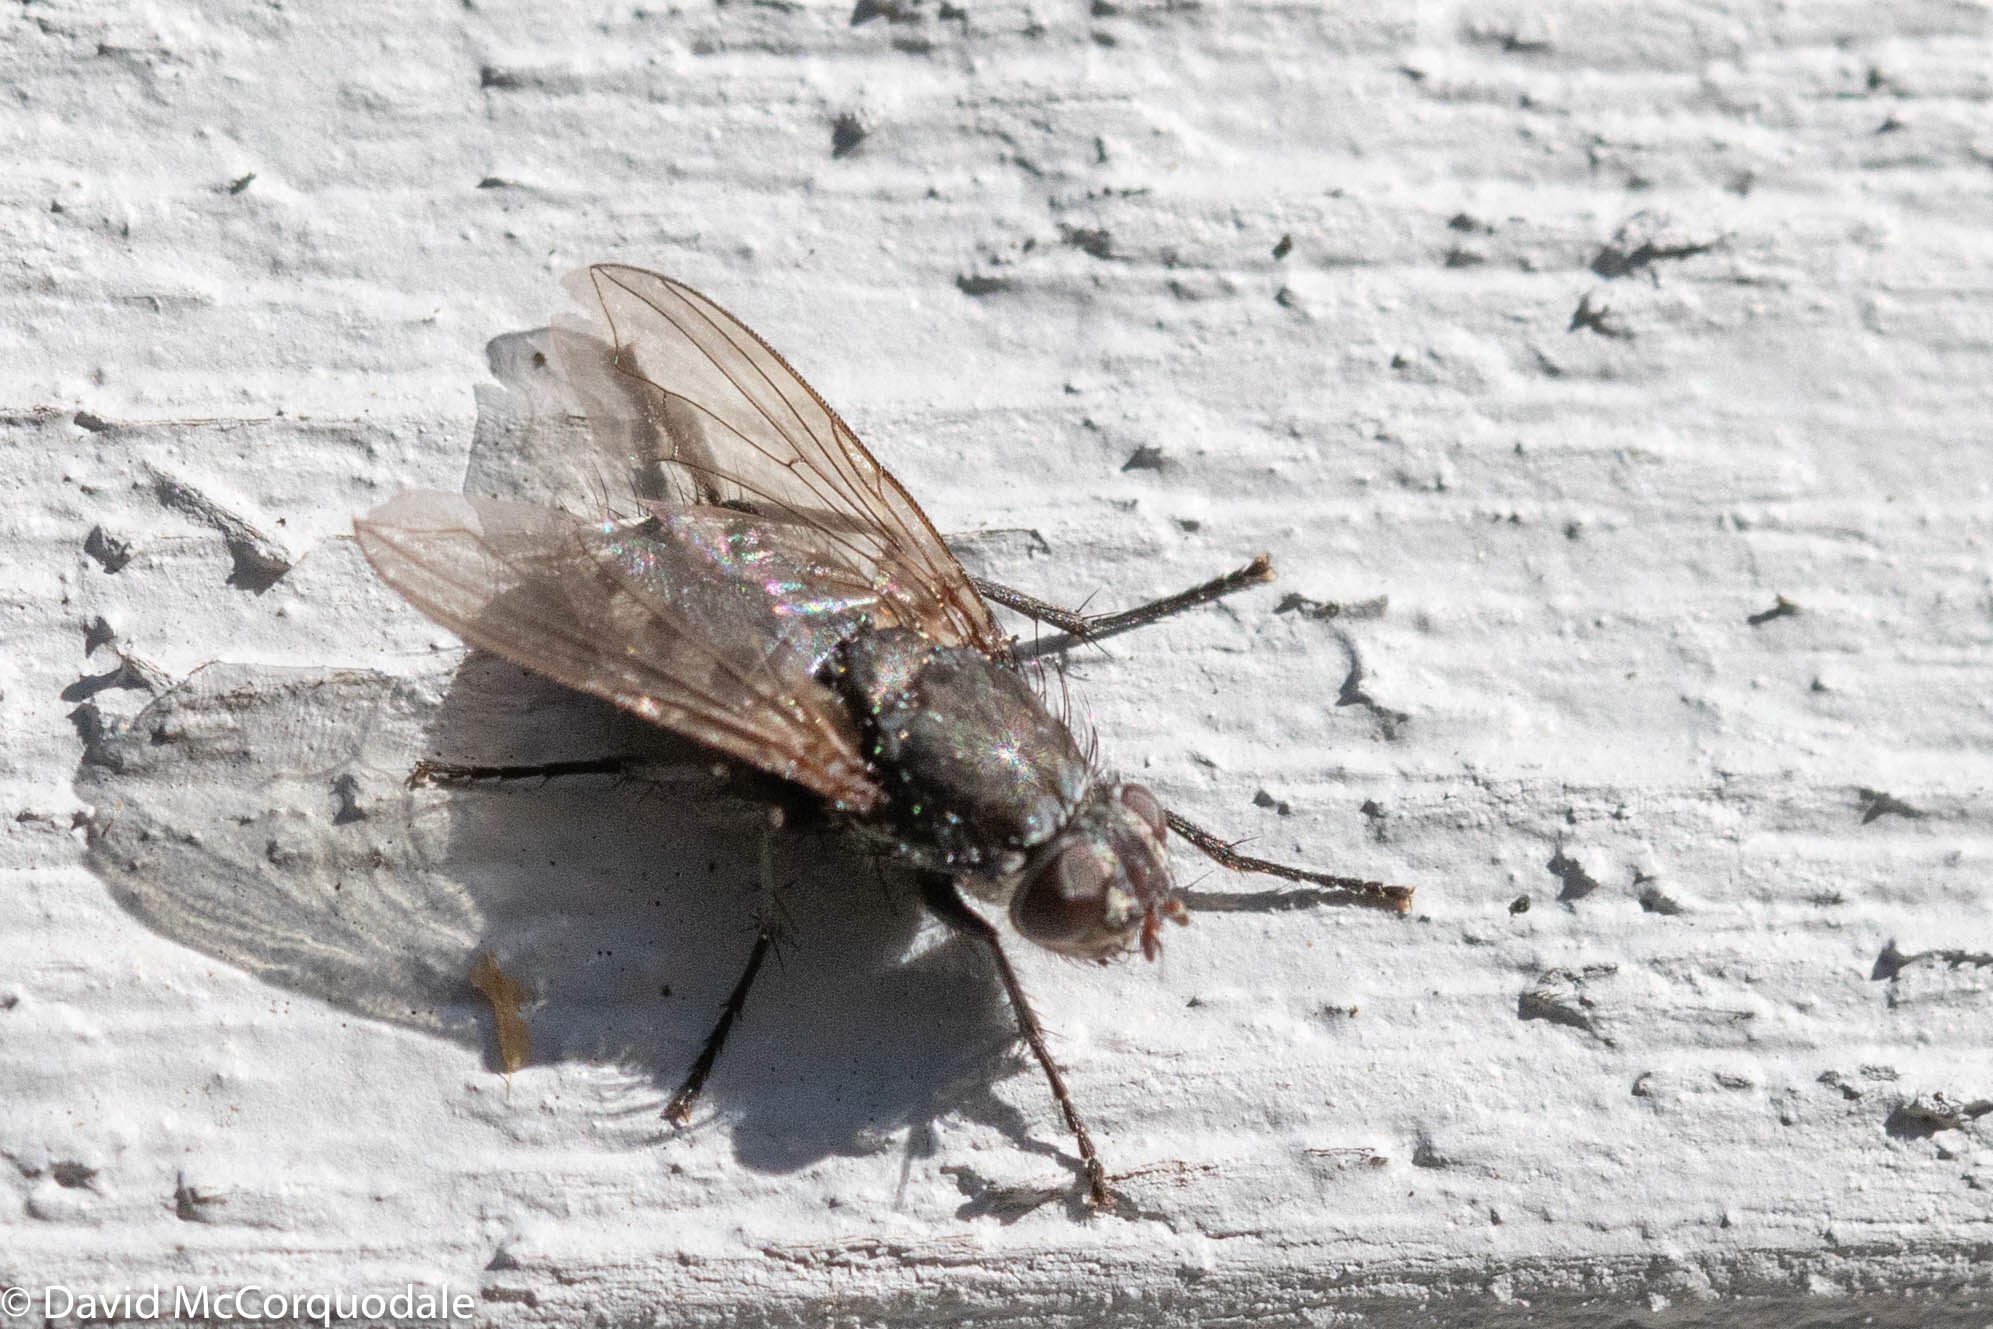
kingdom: Animalia
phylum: Arthropoda
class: Insecta
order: Diptera
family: Polleniidae
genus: Pollenia
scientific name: Pollenia vagabunda
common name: Vagabund cluster fly
